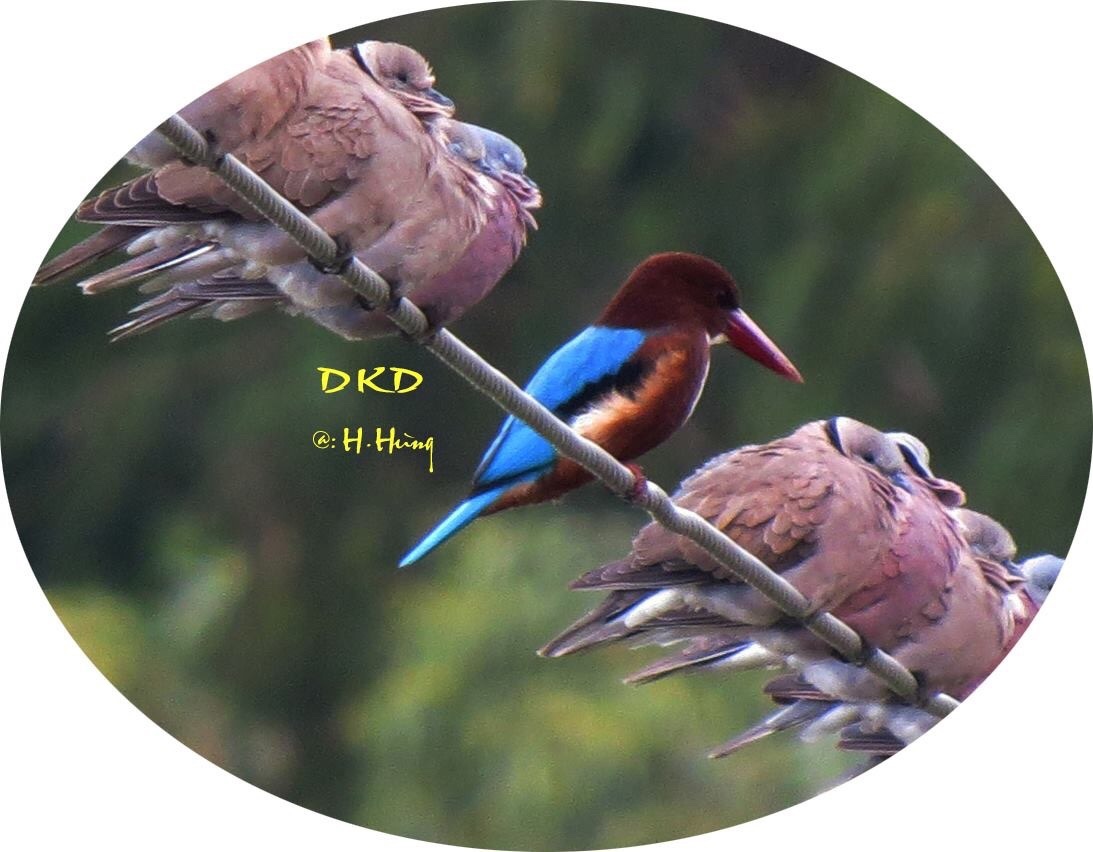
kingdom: Animalia
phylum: Chordata
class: Aves
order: Coraciiformes
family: Alcedinidae
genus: Halcyon
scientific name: Halcyon smyrnensis
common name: White-throated kingfisher
